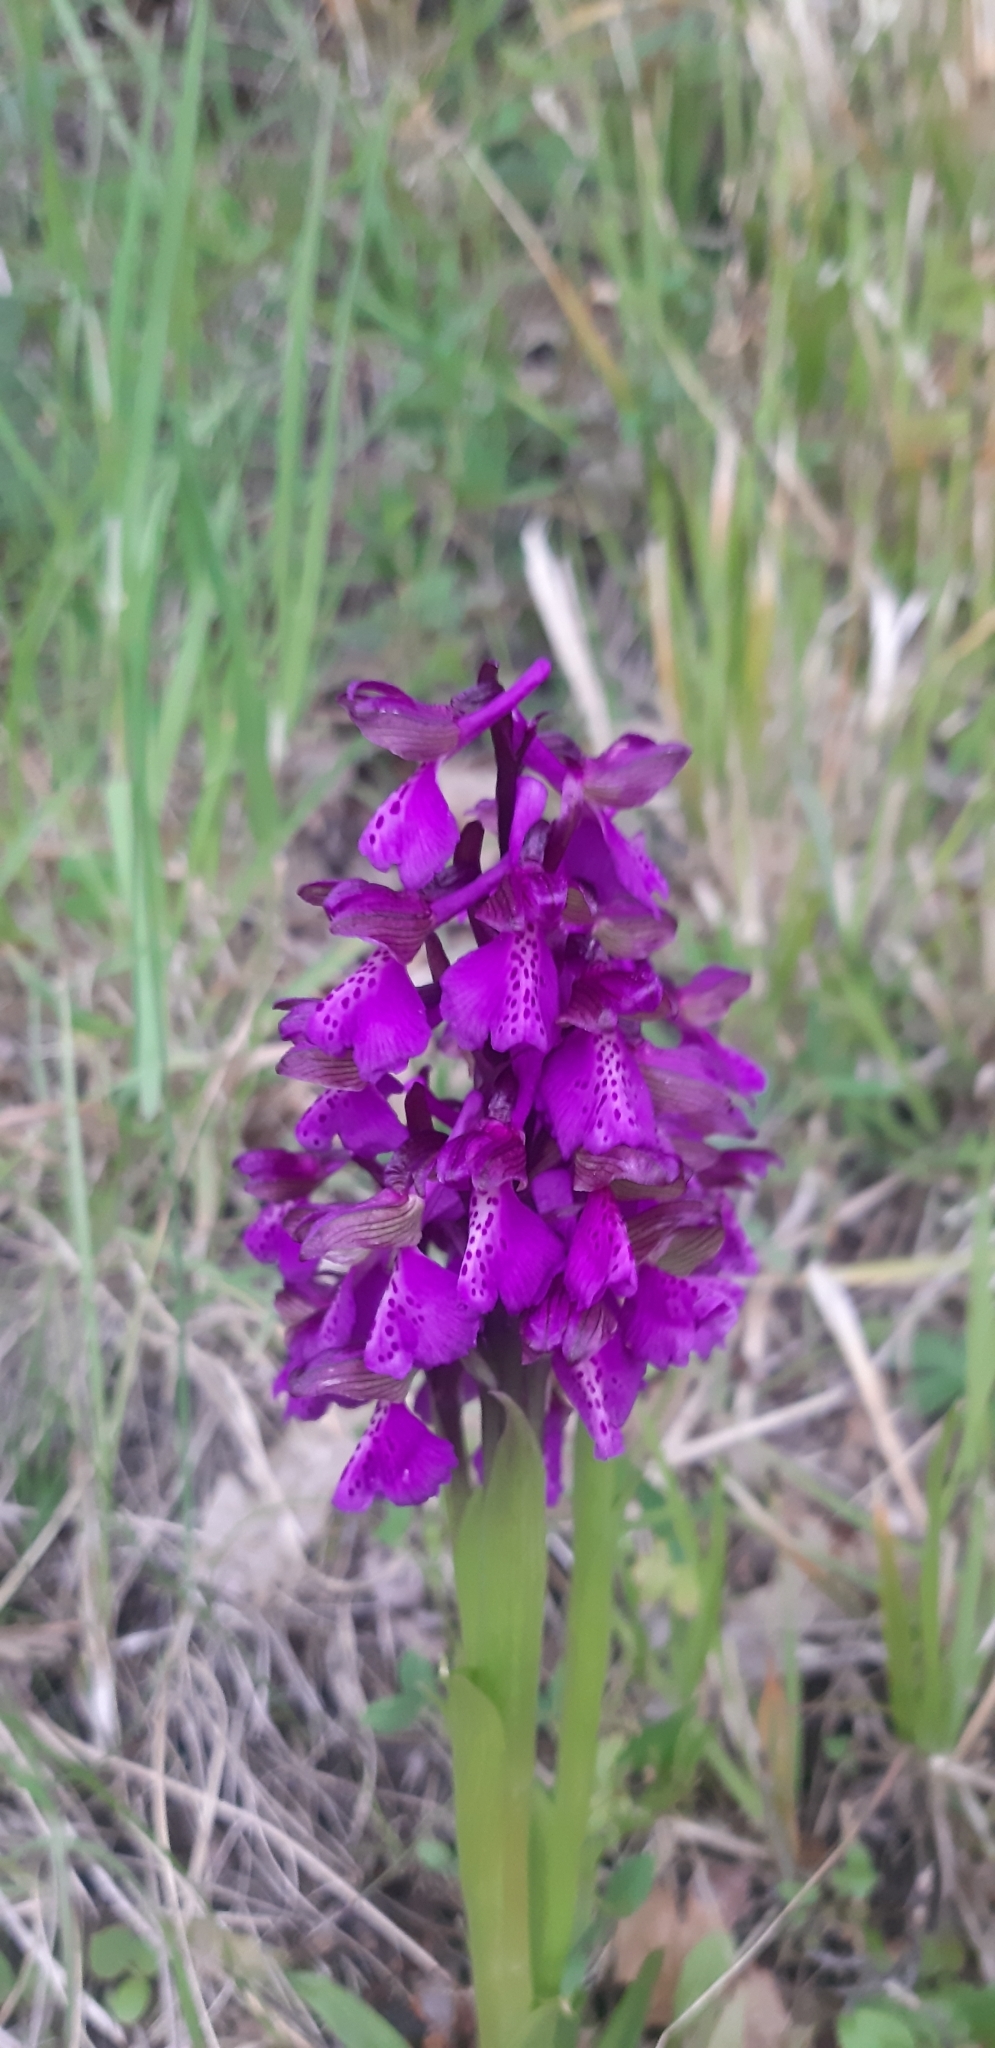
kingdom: Plantae
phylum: Tracheophyta
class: Liliopsida
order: Asparagales
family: Orchidaceae
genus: Anacamptis
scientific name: Anacamptis morio
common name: Green-winged orchid
